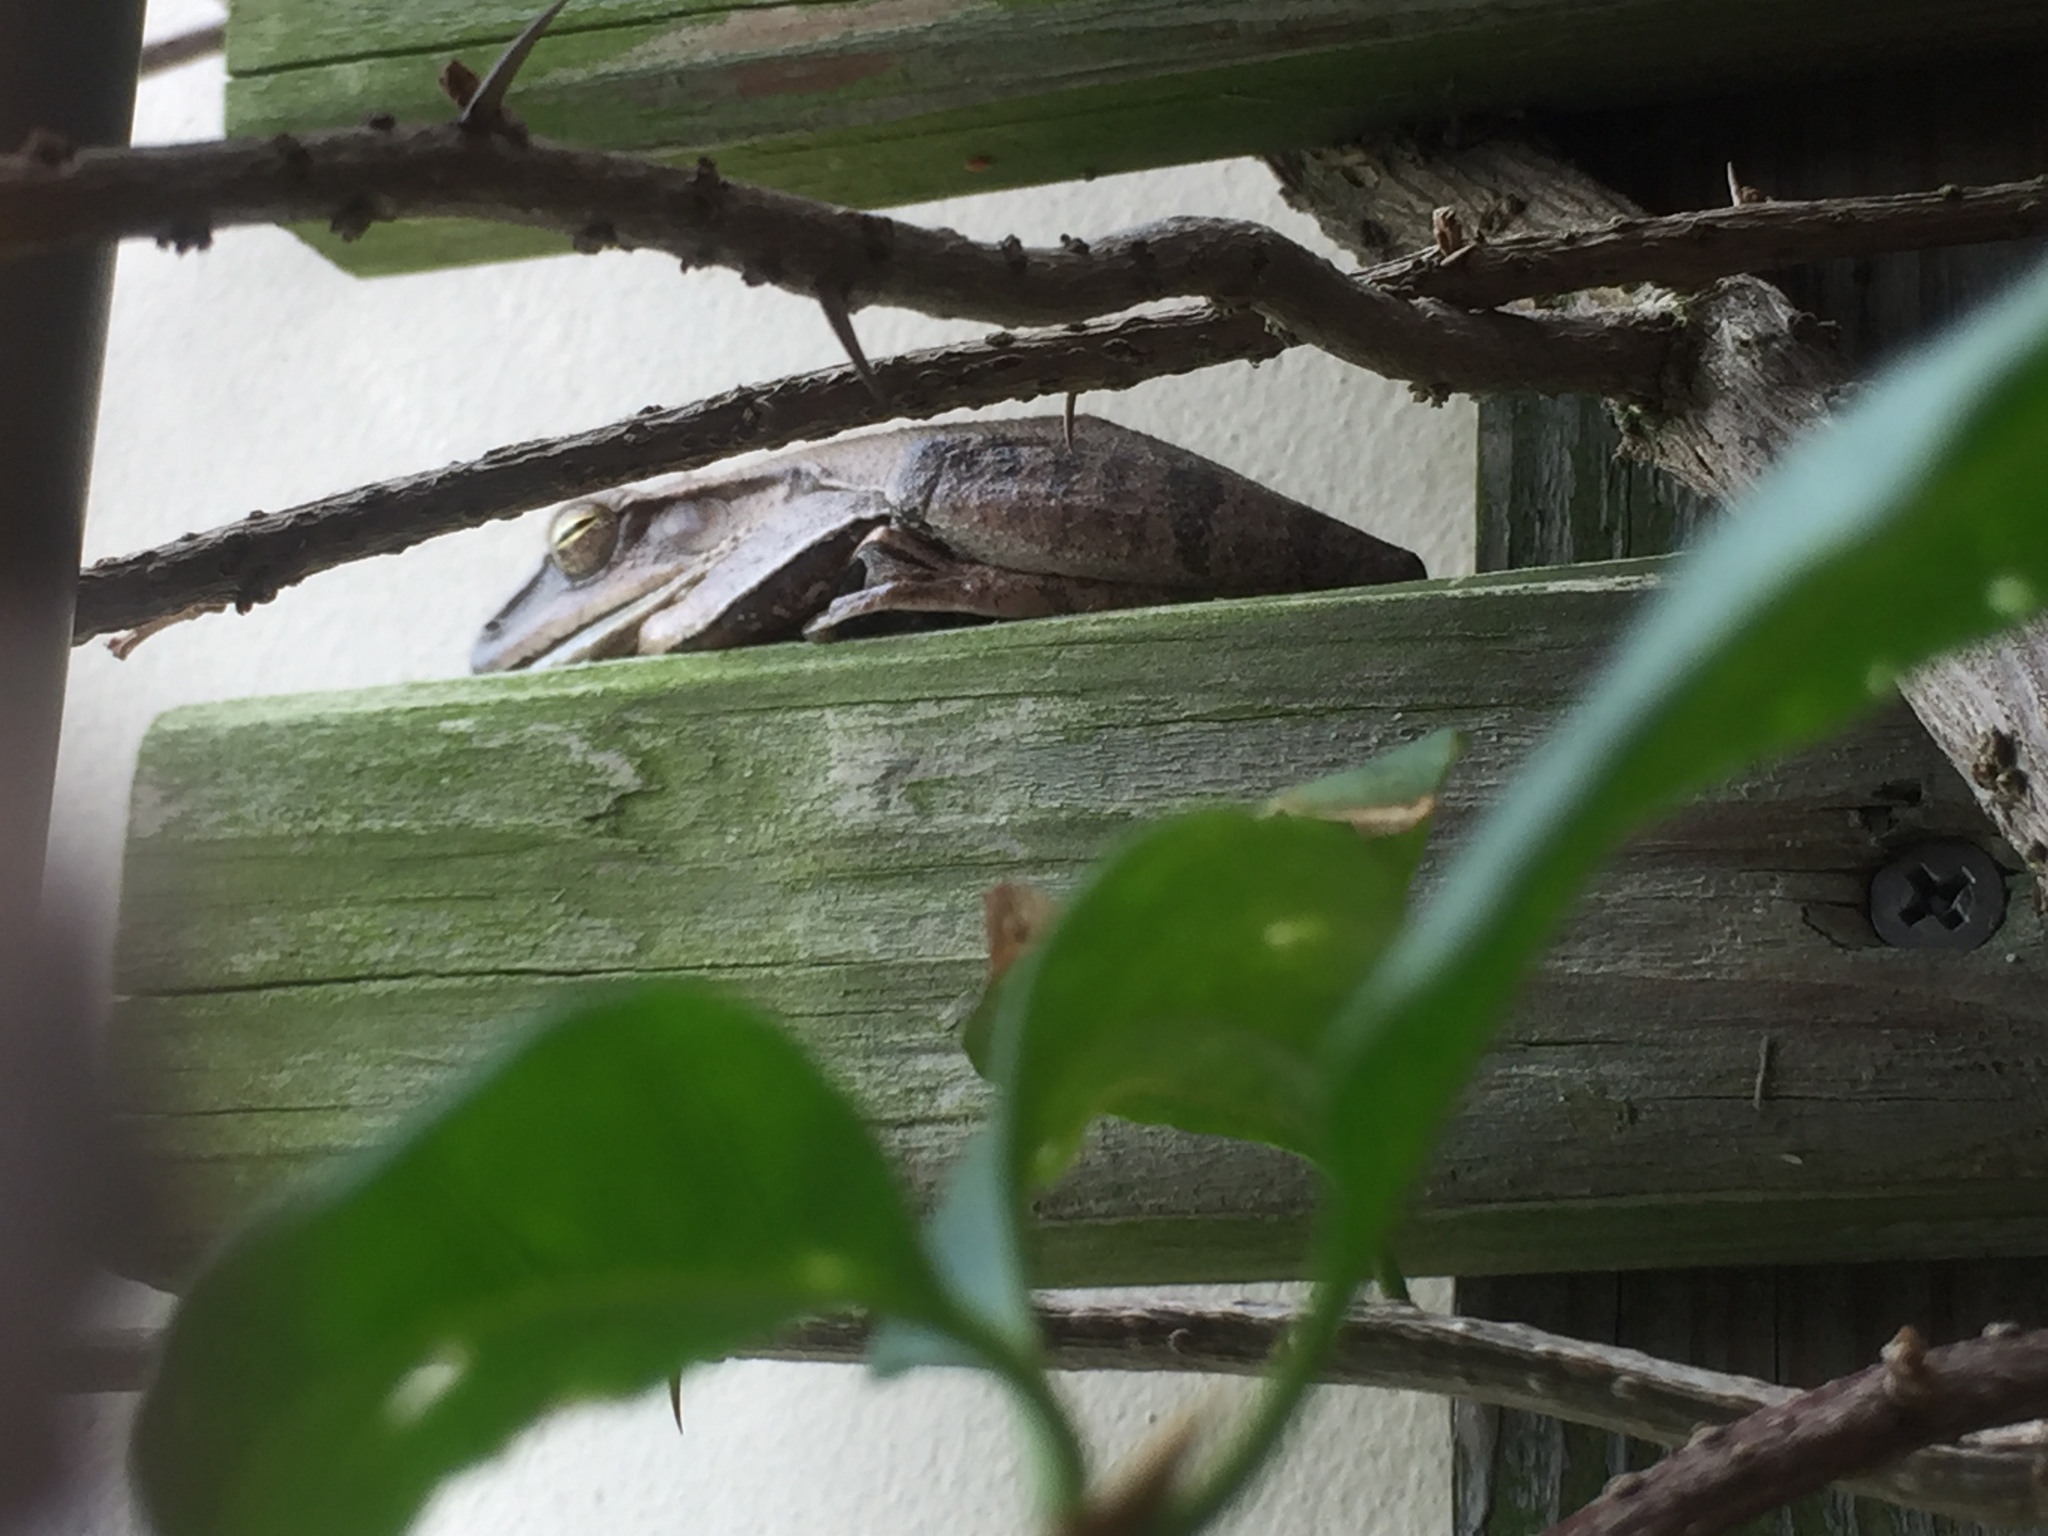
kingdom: Animalia
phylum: Chordata
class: Amphibia
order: Anura
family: Rhacophoridae
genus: Polypedates
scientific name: Polypedates megacephalus
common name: Hong kong whipping frog
